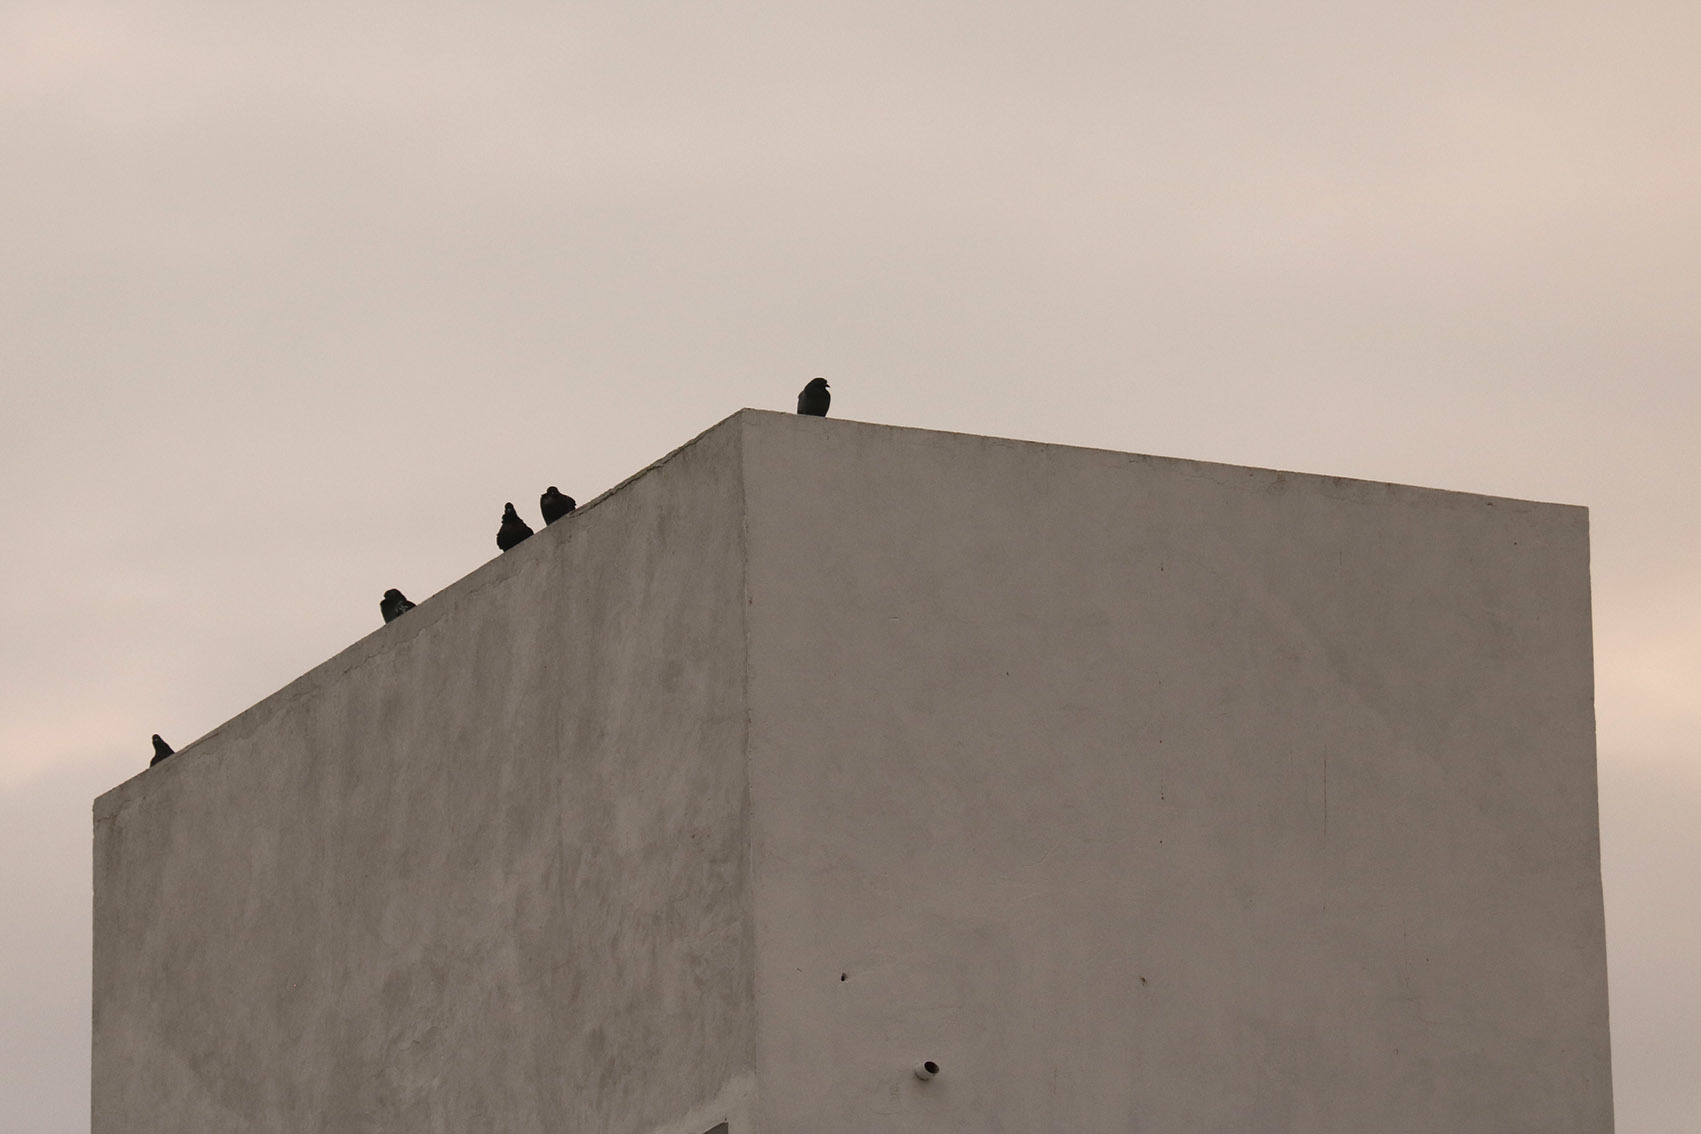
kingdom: Animalia
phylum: Chordata
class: Aves
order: Columbiformes
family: Columbidae
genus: Columba
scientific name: Columba livia
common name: Rock pigeon
